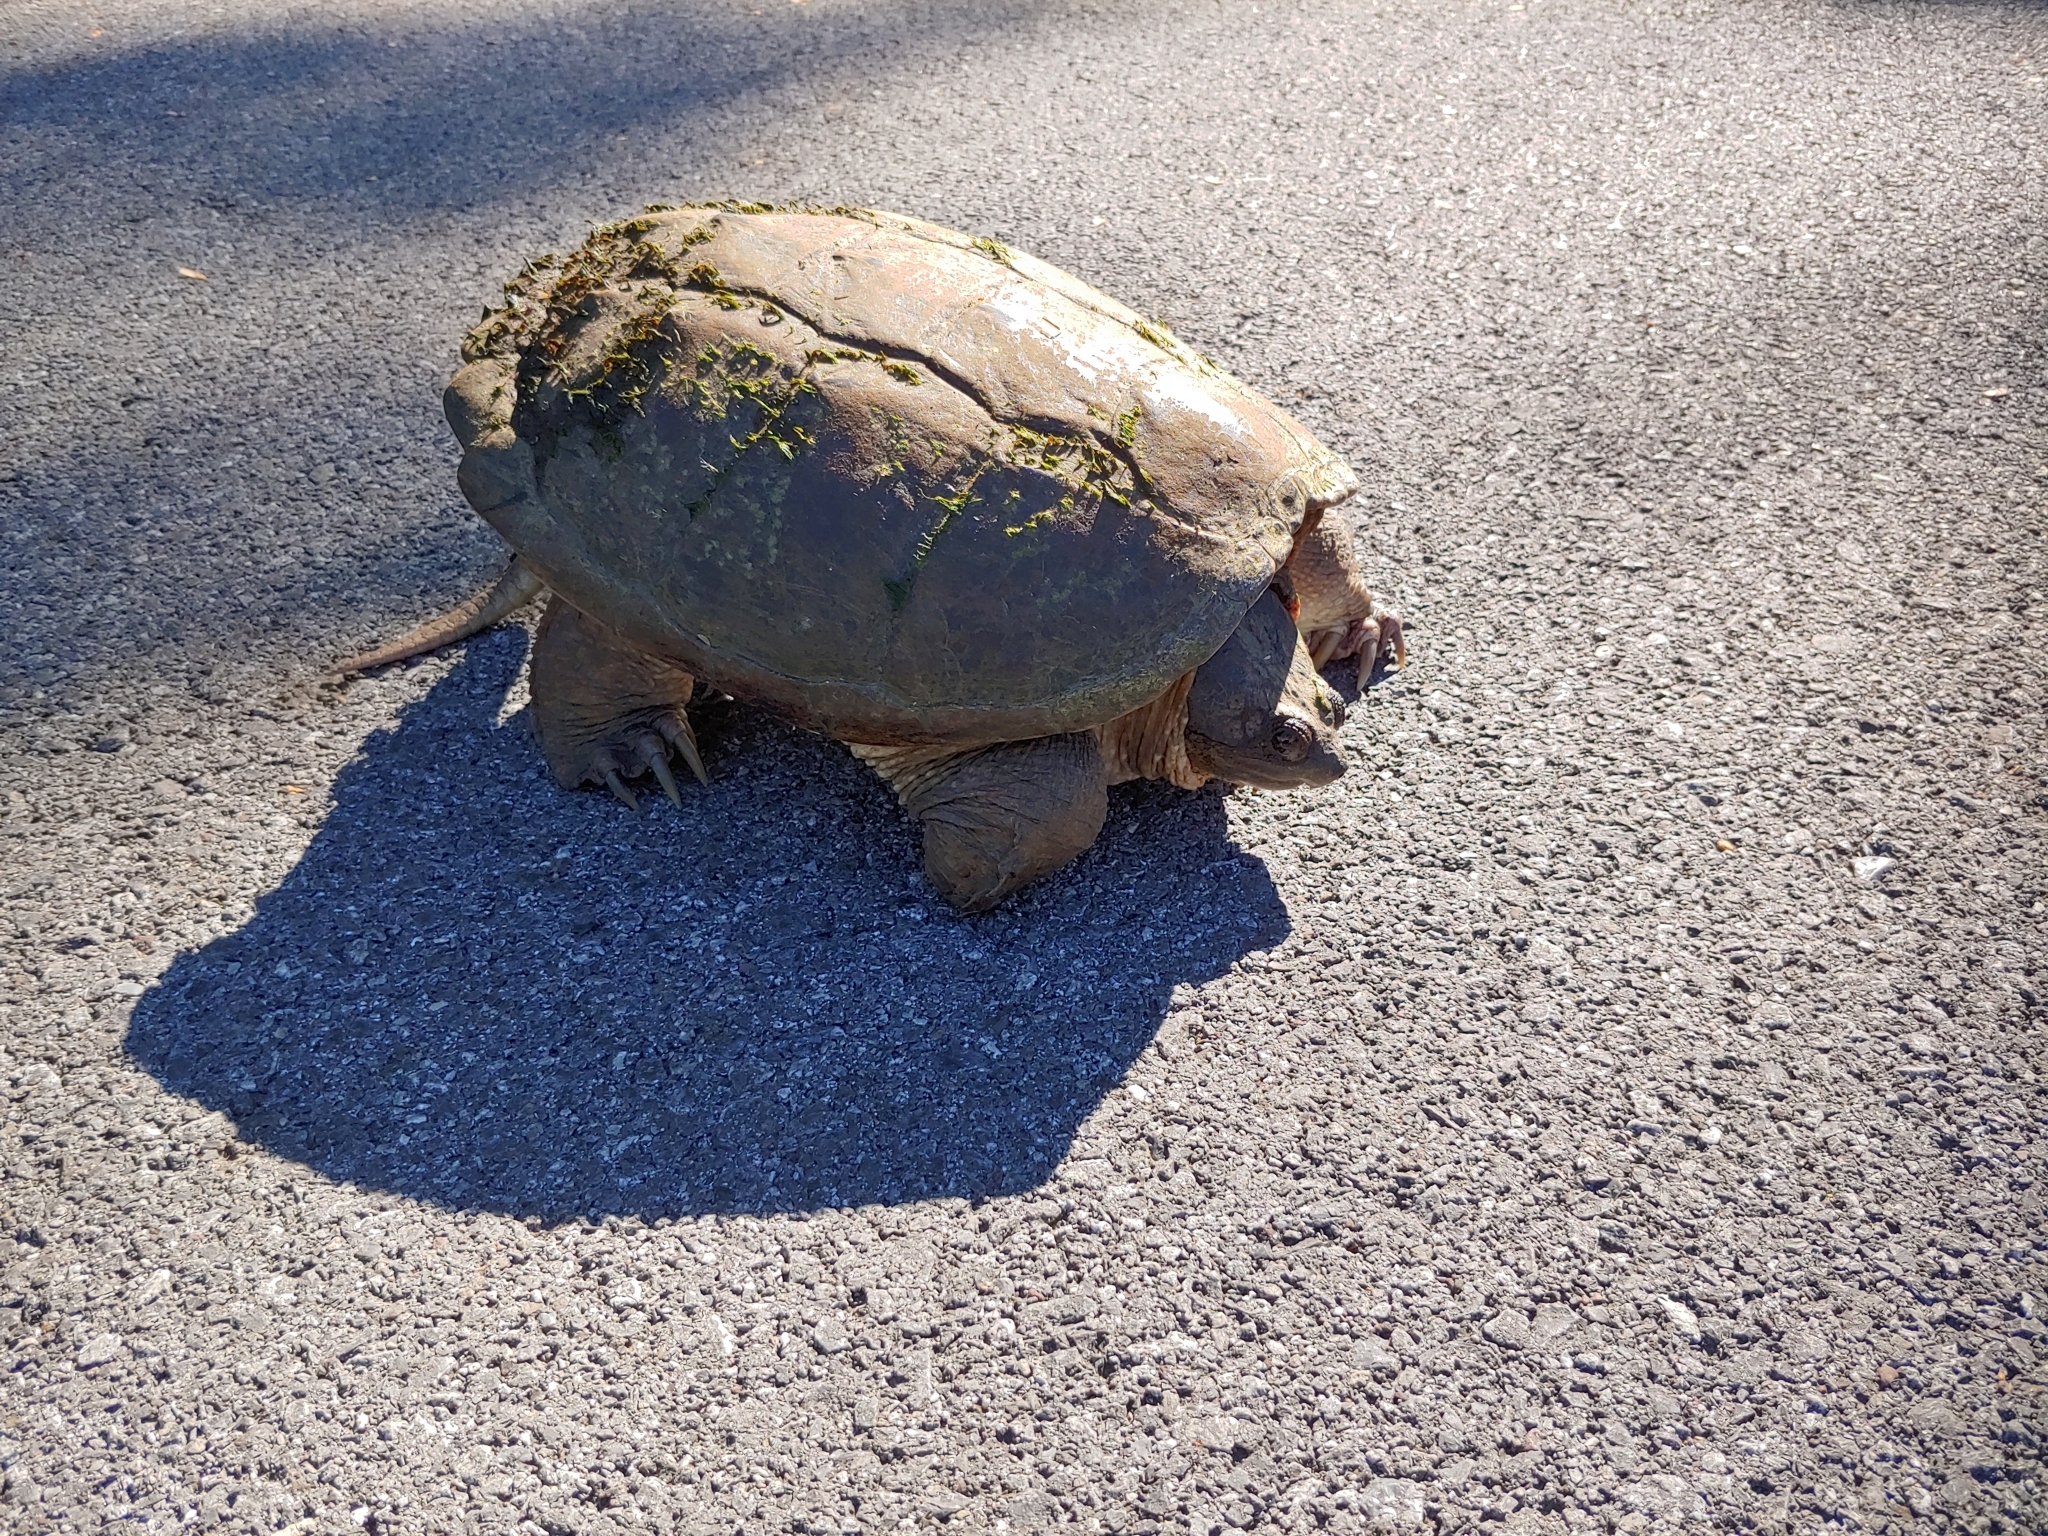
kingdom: Animalia
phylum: Chordata
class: Testudines
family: Chelydridae
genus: Chelydra
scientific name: Chelydra serpentina
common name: Common snapping turtle
